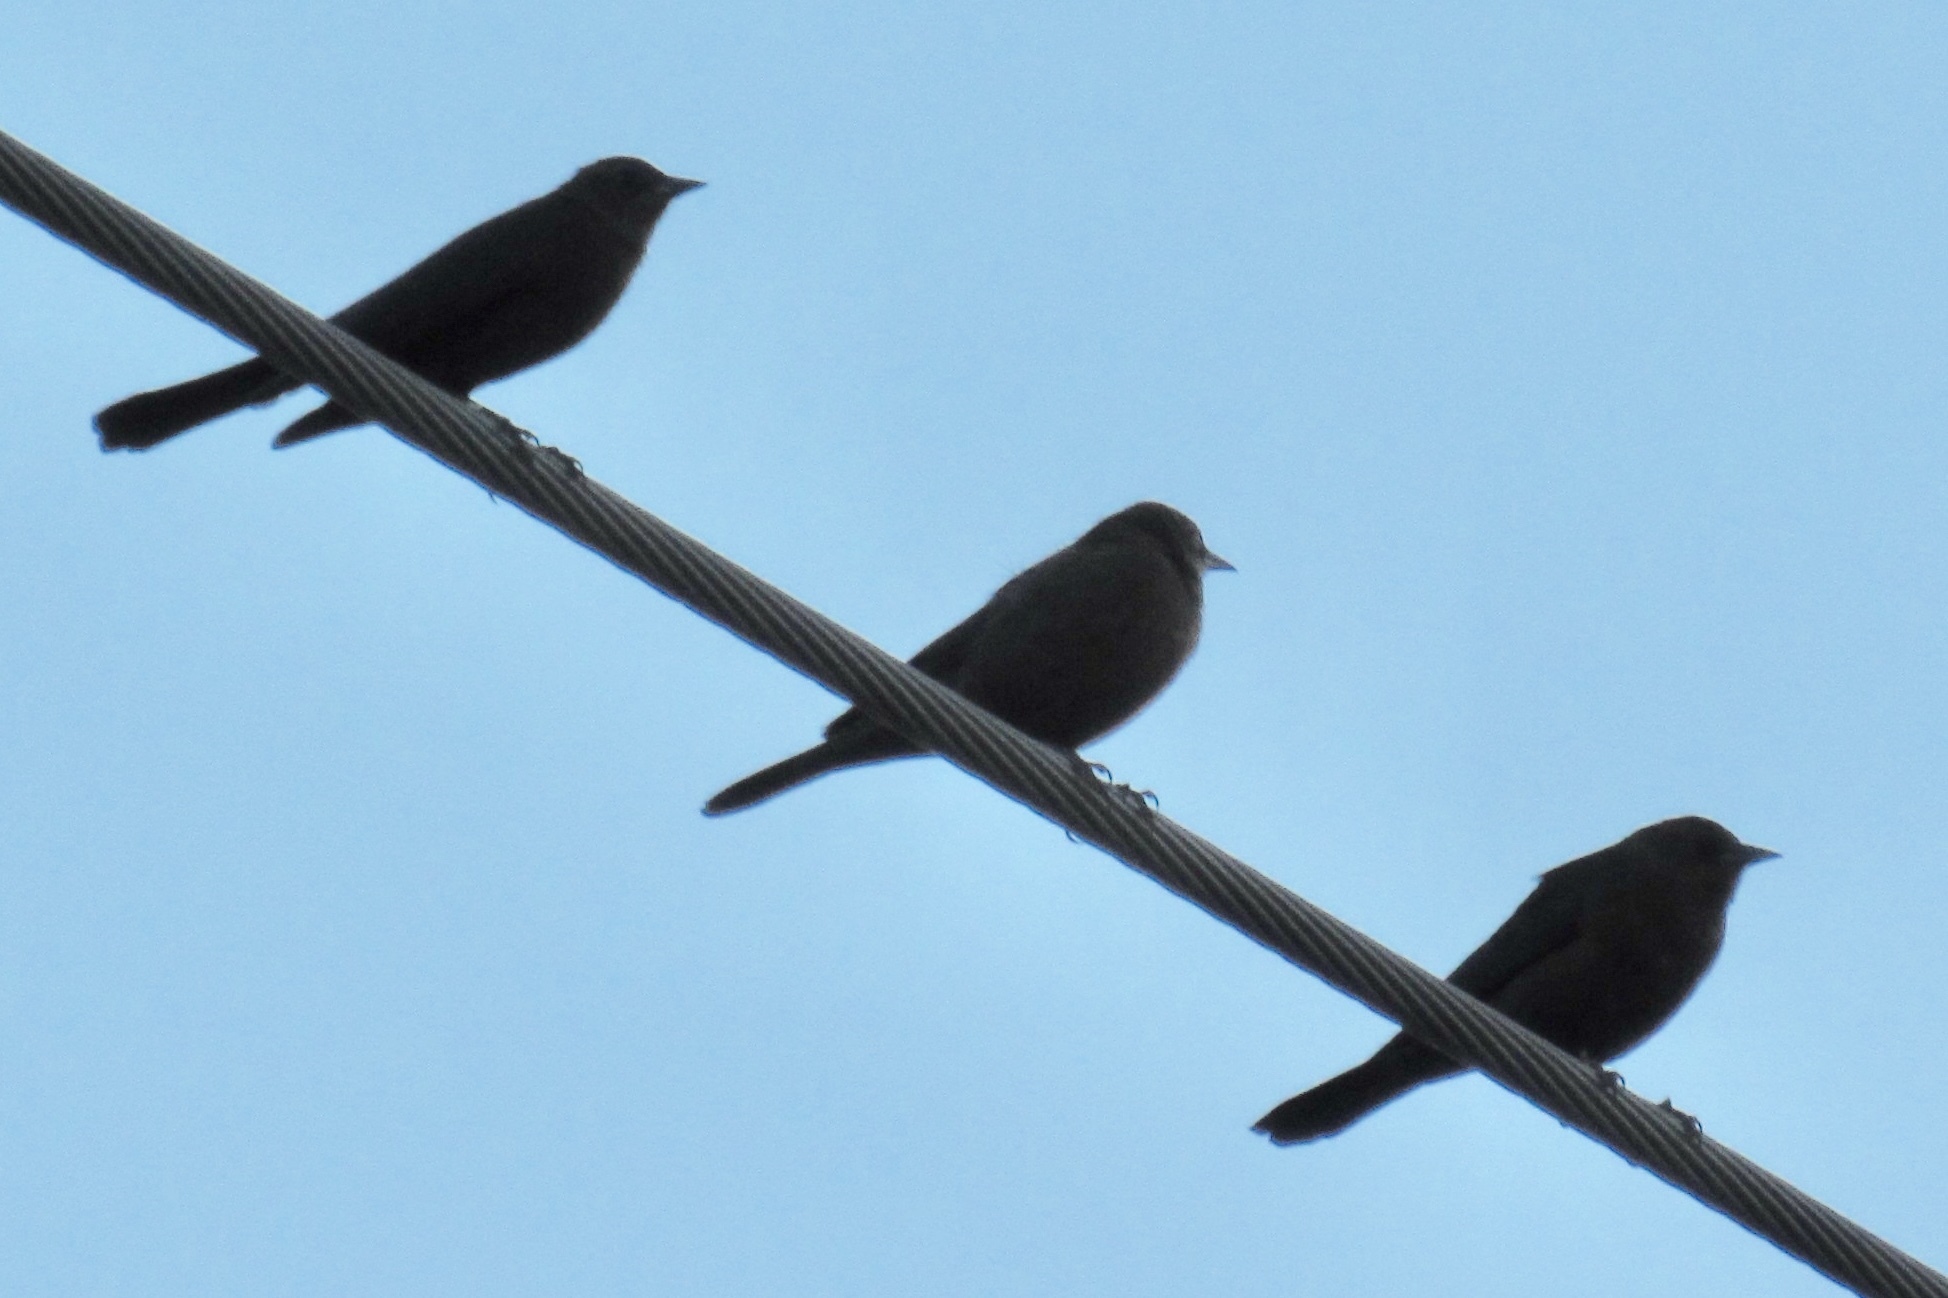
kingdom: Animalia
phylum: Chordata
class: Aves
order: Passeriformes
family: Icteridae
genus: Molothrus
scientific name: Molothrus ater
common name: Brown-headed cowbird
